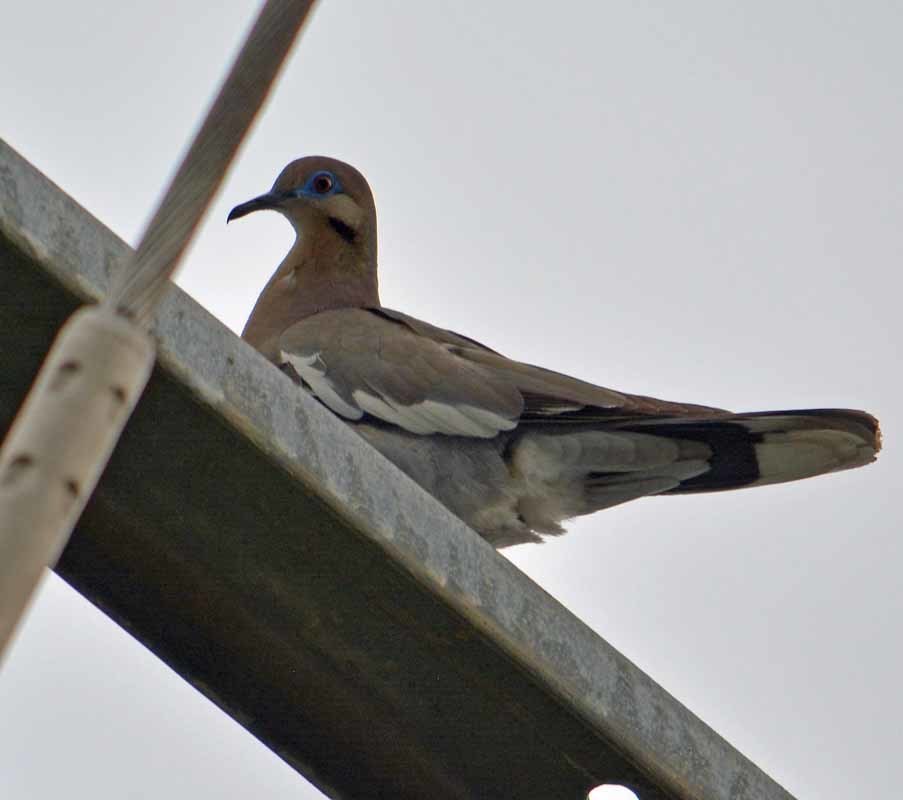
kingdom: Animalia
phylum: Chordata
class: Aves
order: Columbiformes
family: Columbidae
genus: Zenaida
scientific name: Zenaida asiatica
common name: White-winged dove
